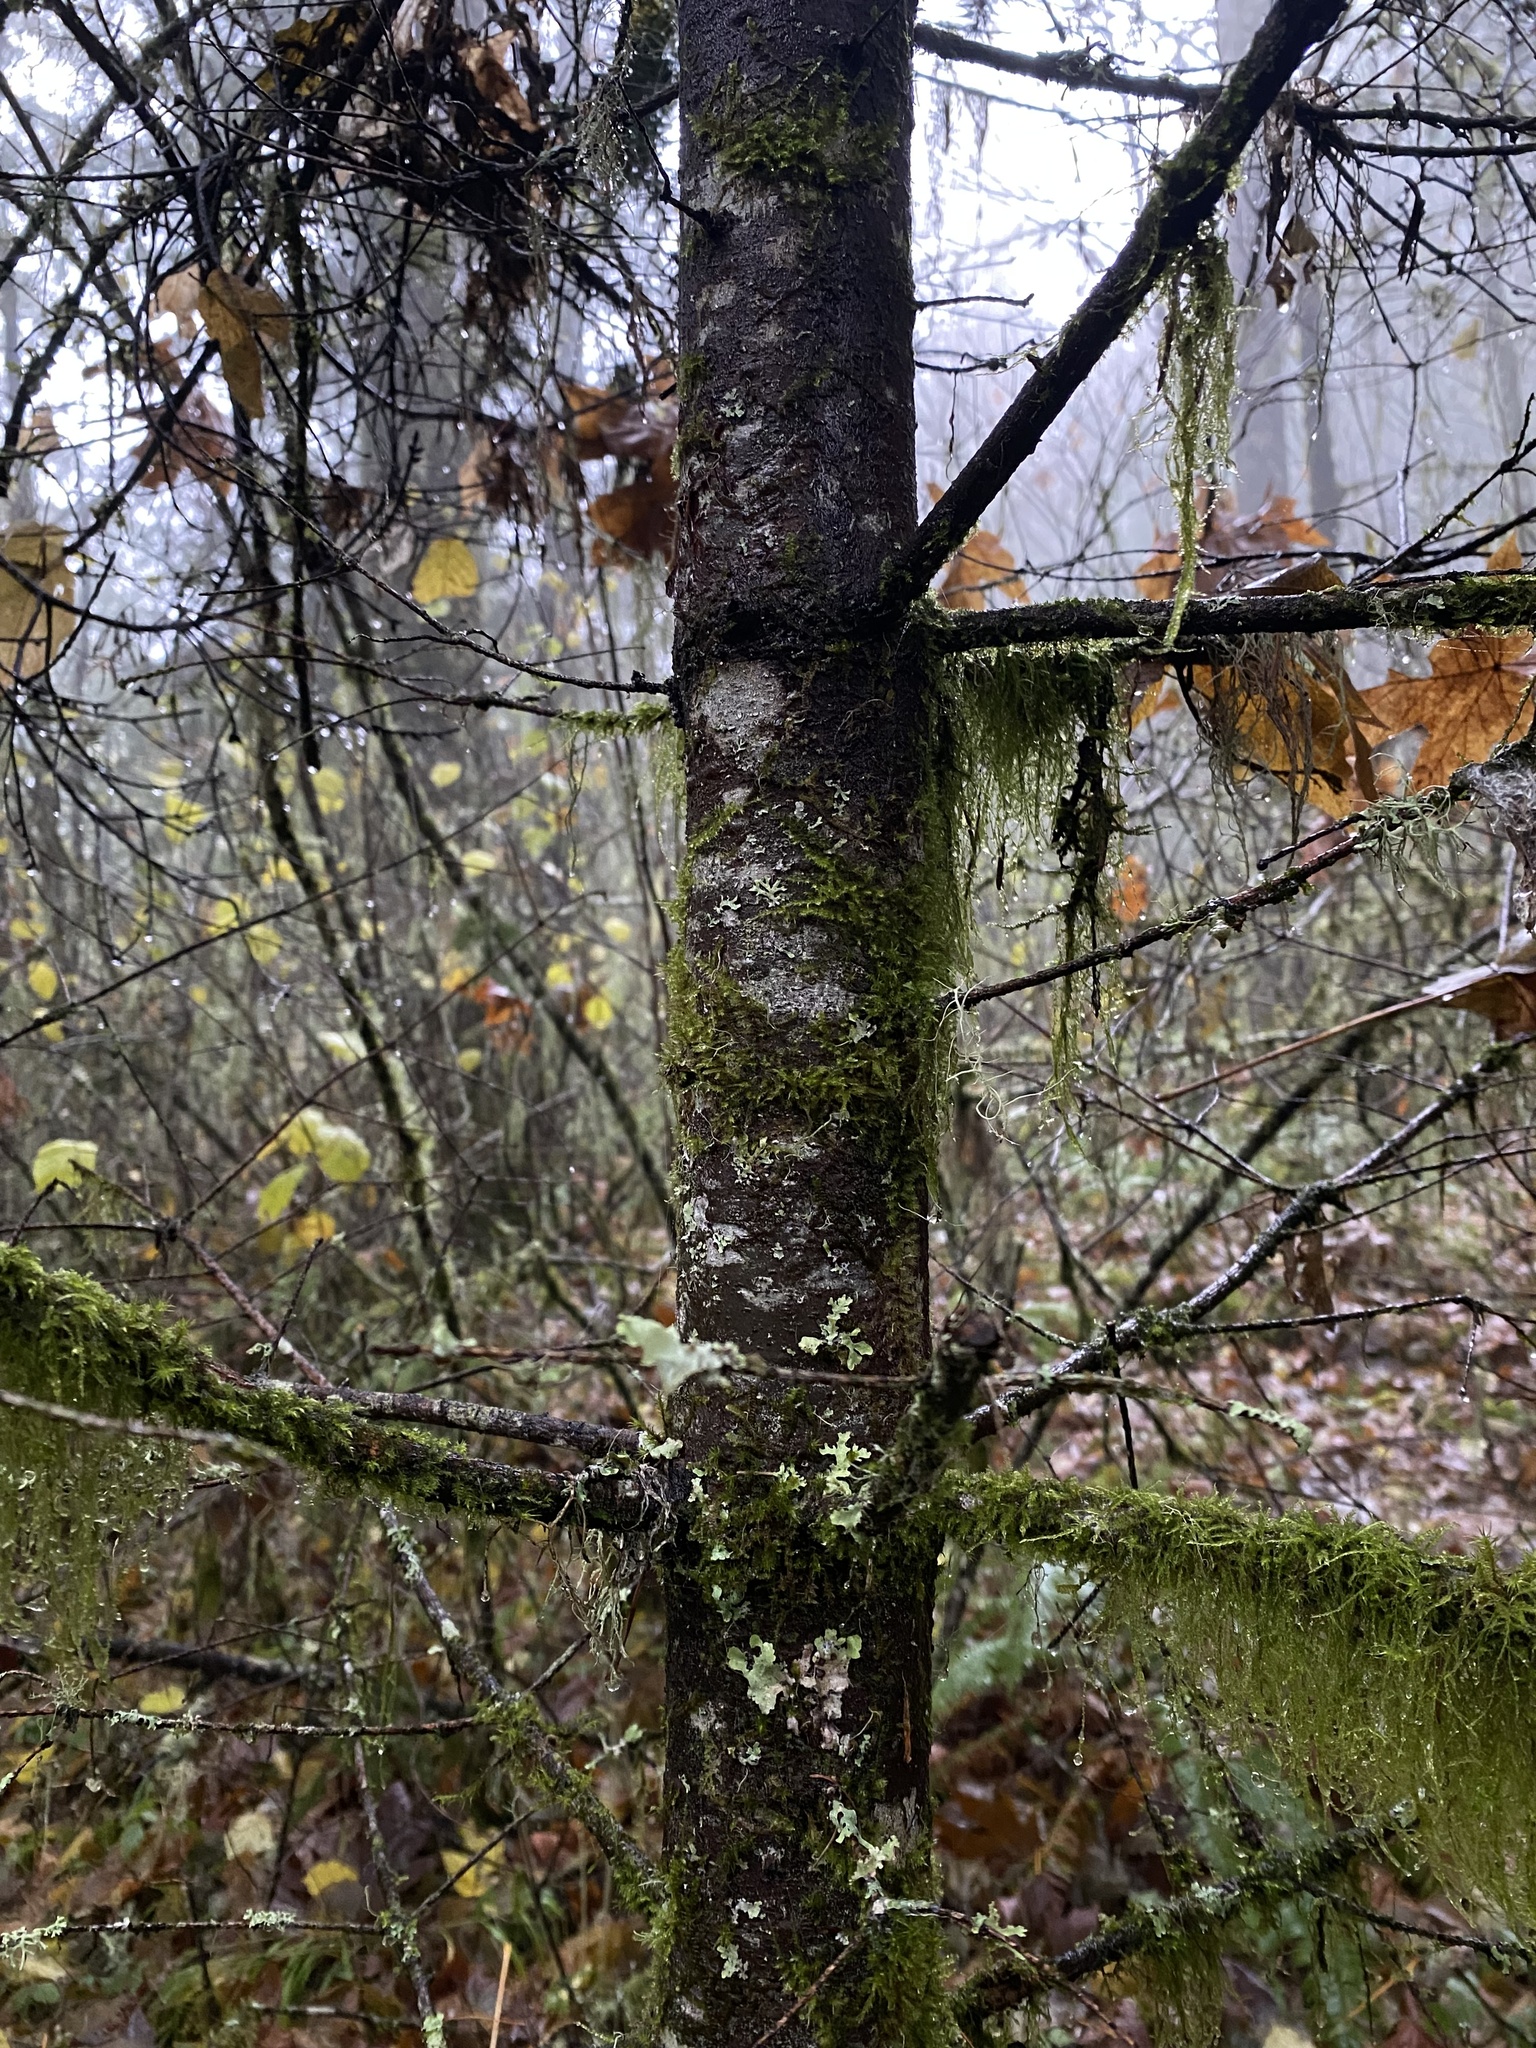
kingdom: Plantae
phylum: Tracheophyta
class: Pinopsida
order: Pinales
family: Pinaceae
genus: Abies
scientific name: Abies grandis
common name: Giant fir
